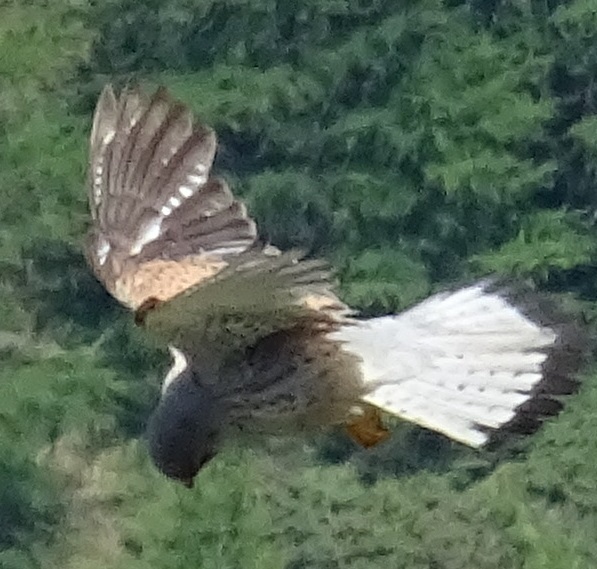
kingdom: Animalia
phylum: Chordata
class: Aves
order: Falconiformes
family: Falconidae
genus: Falco
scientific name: Falco tinnunculus
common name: Common kestrel
